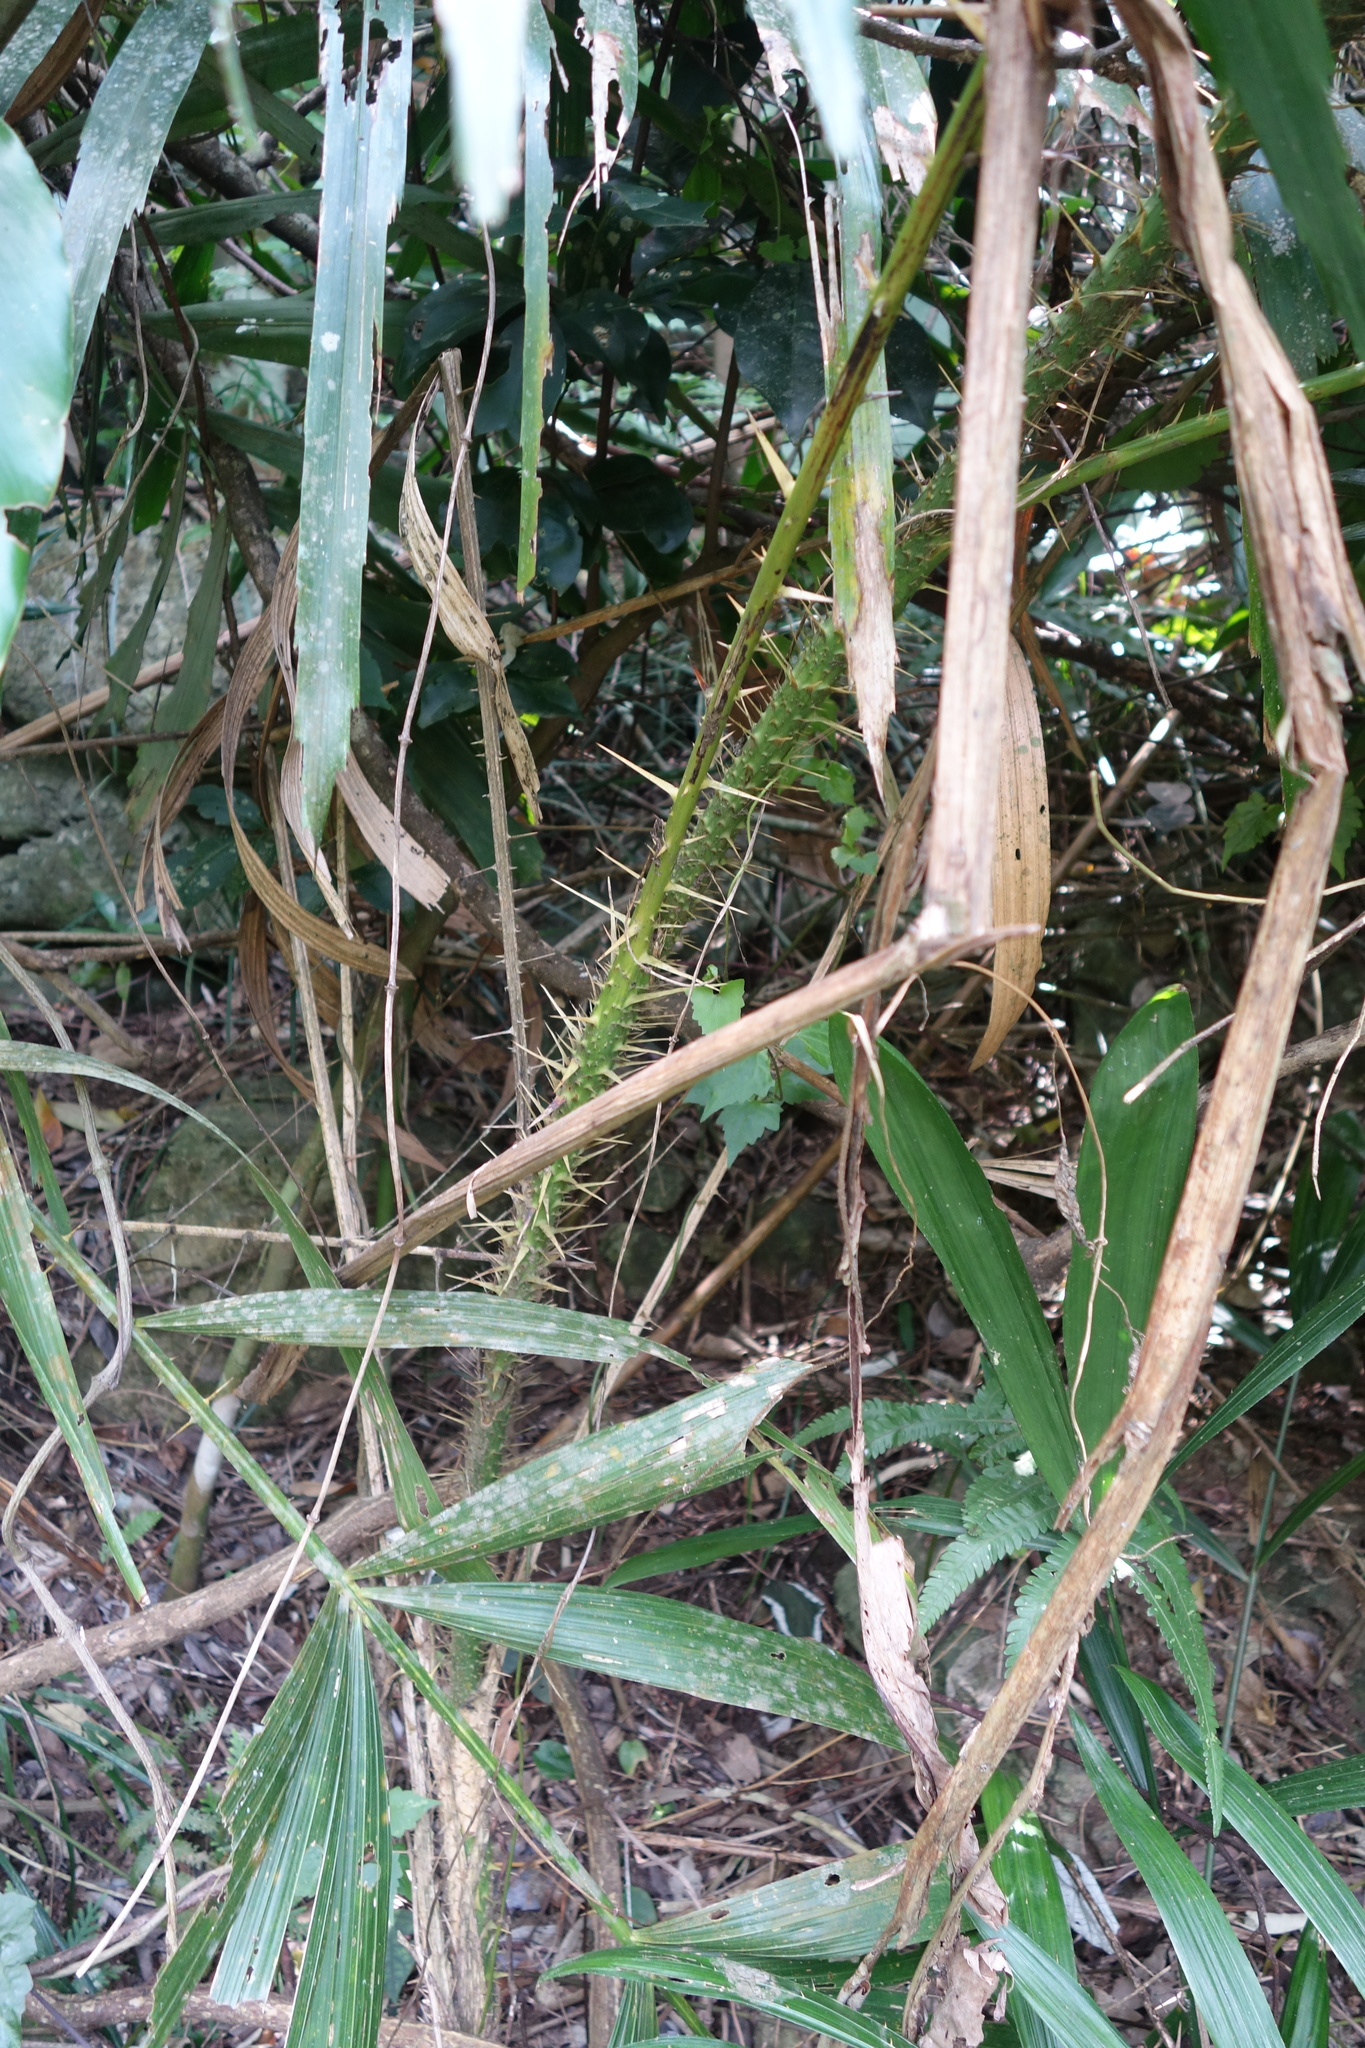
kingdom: Plantae
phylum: Tracheophyta
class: Liliopsida
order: Arecales
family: Arecaceae
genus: Calamus
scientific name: Calamus formosanus
